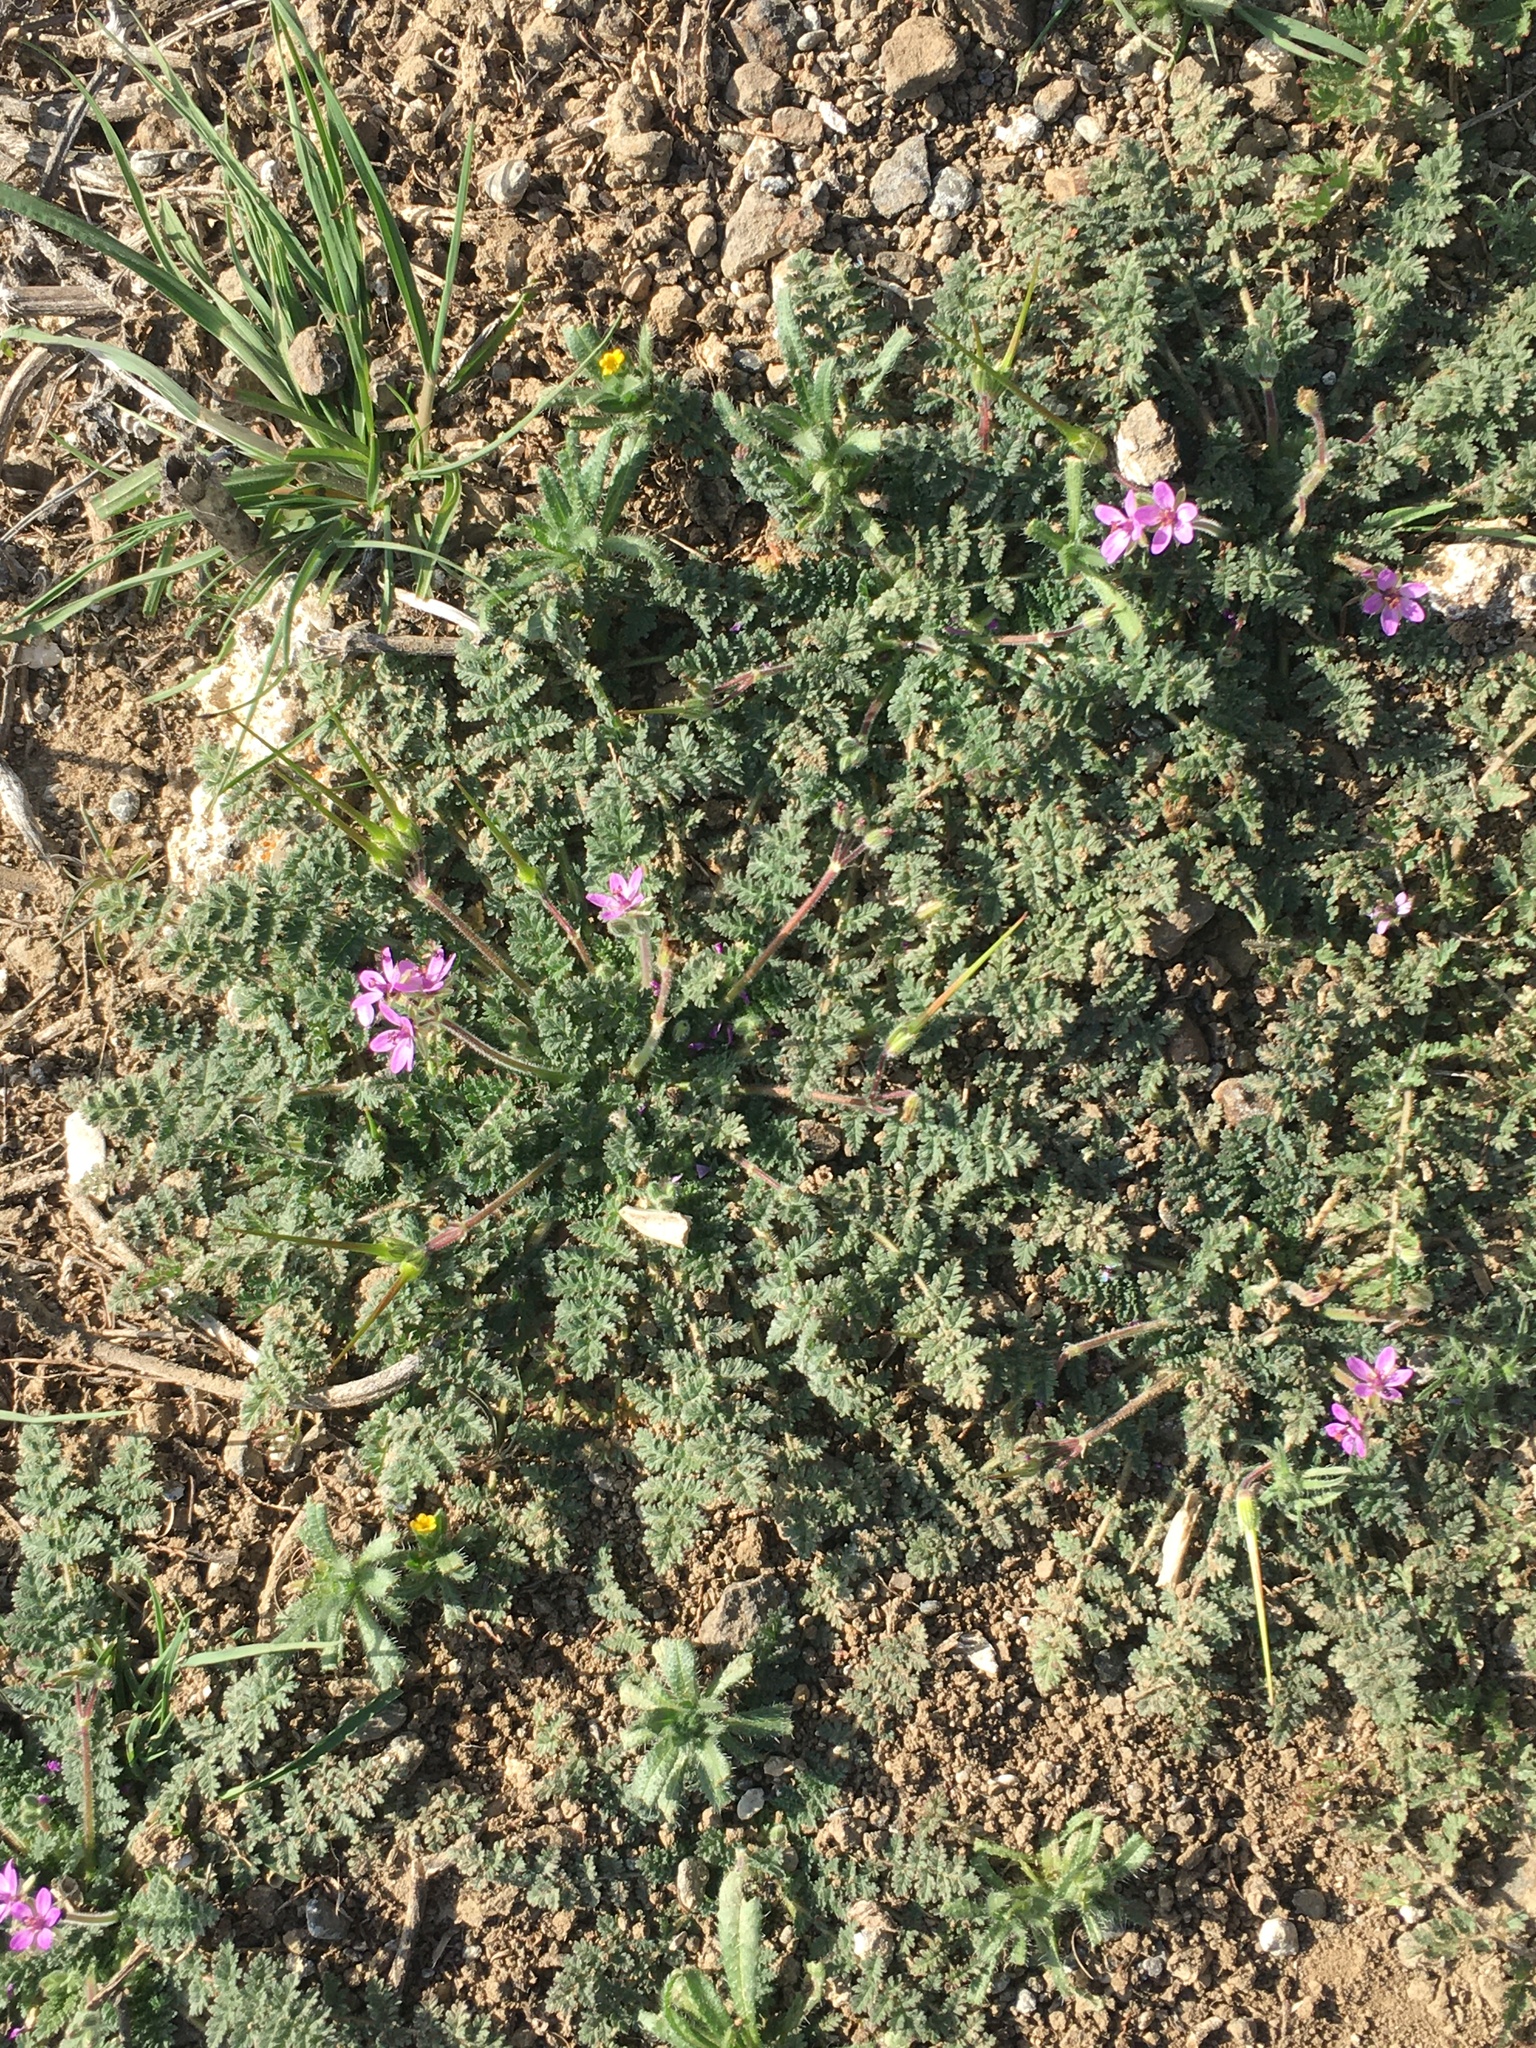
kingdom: Plantae
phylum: Tracheophyta
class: Magnoliopsida
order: Geraniales
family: Geraniaceae
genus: Erodium
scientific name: Erodium cicutarium
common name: Common stork's-bill
